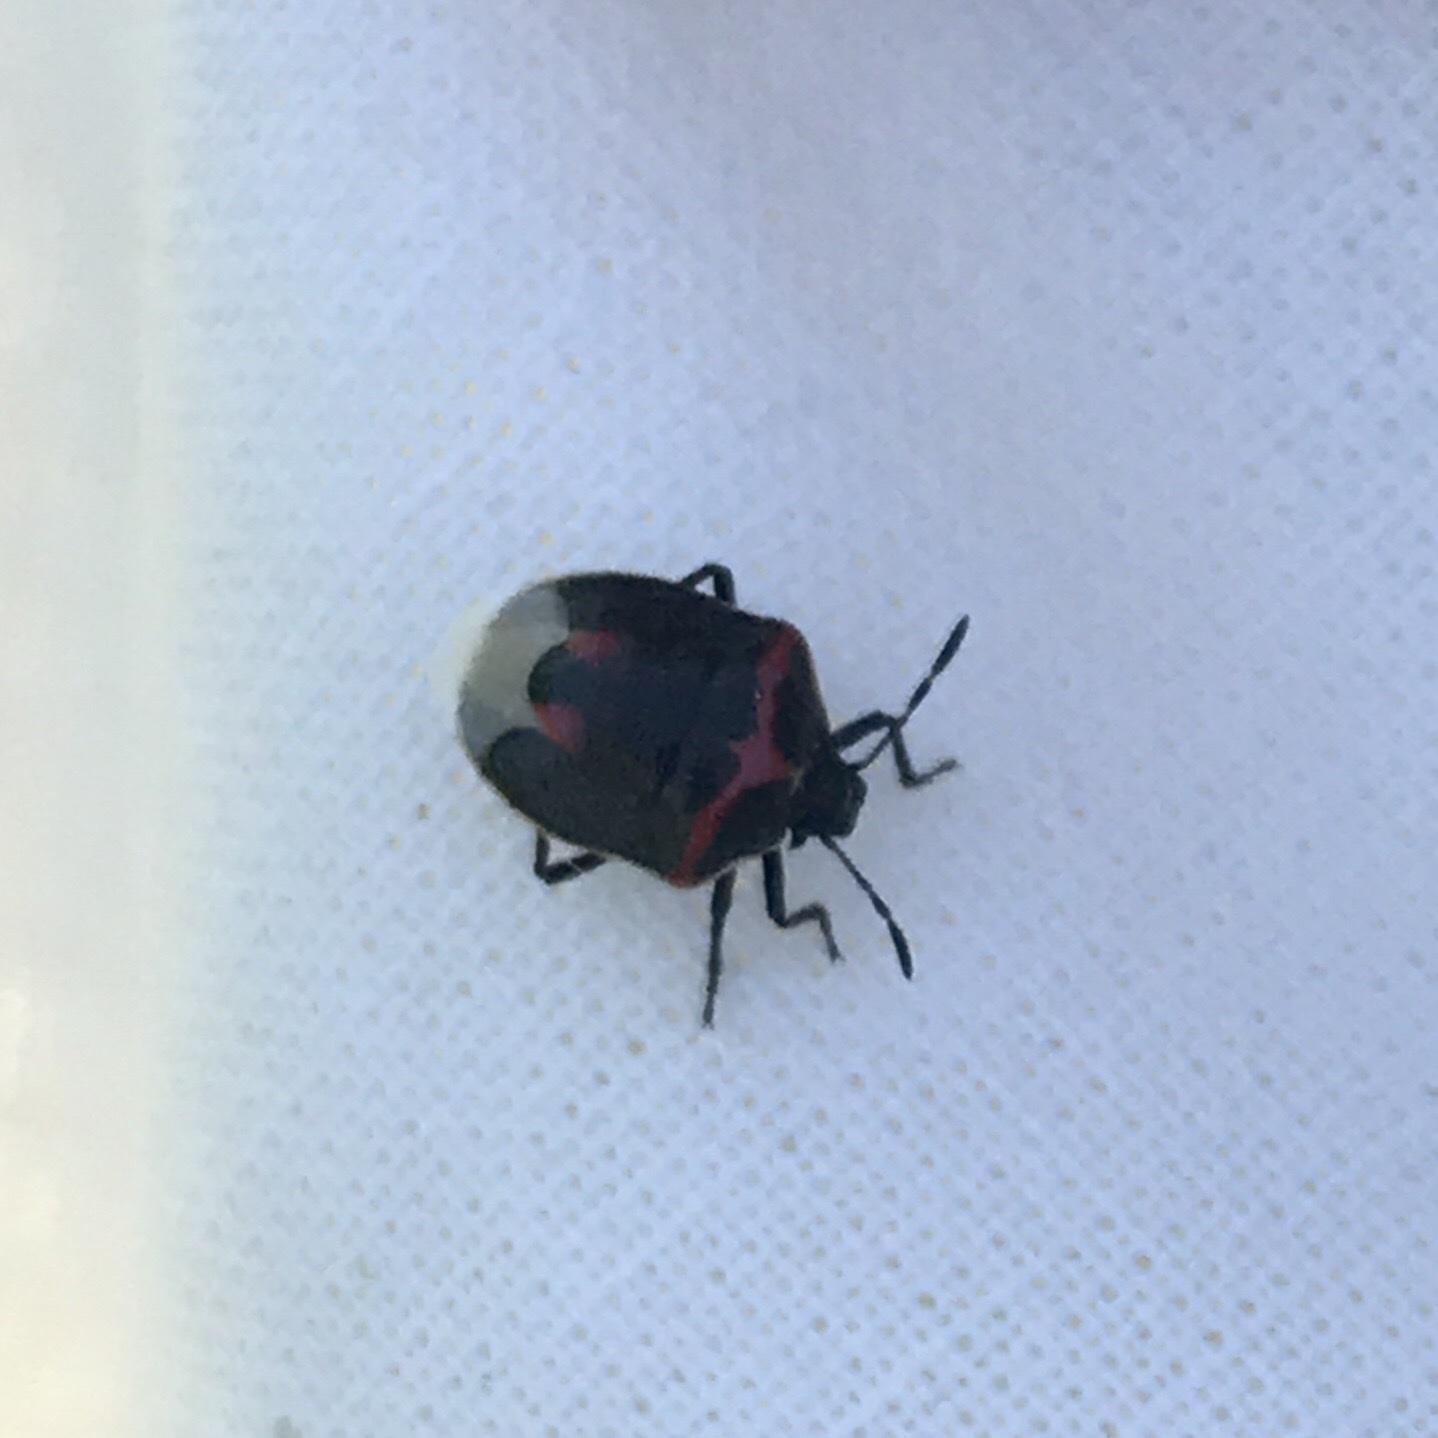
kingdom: Animalia
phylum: Arthropoda
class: Insecta
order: Hemiptera
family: Pentatomidae
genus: Cosmopepla
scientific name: Cosmopepla lintneriana
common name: Twice-stabbed stink bug
